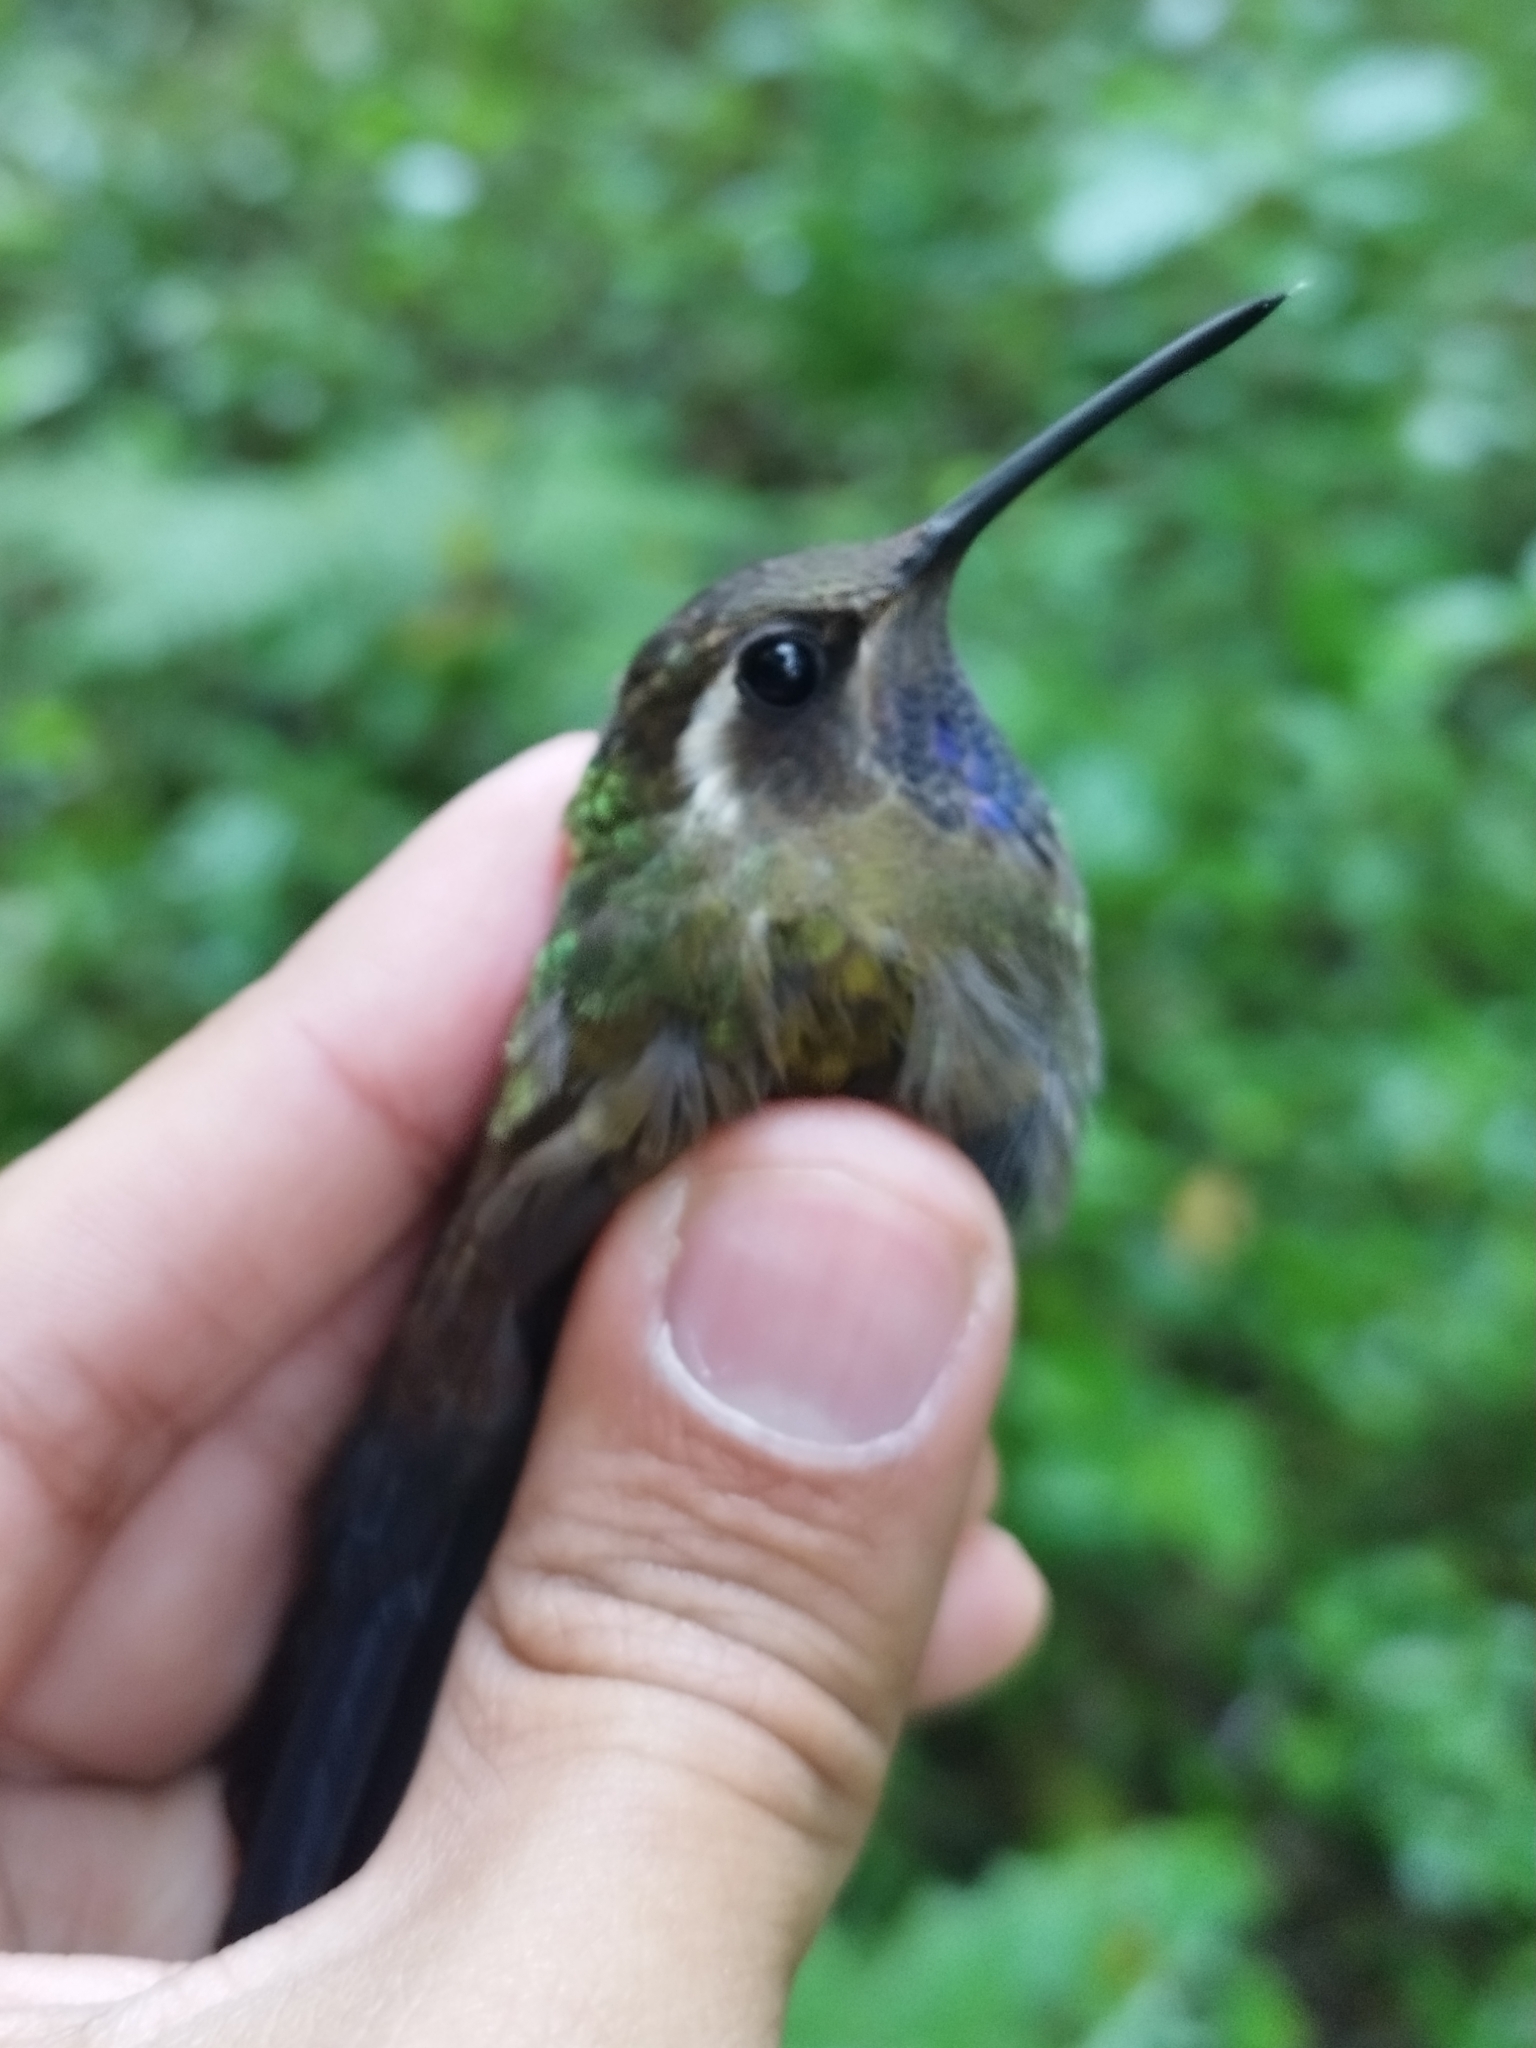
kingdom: Animalia
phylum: Chordata
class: Aves
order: Apodiformes
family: Trochilidae
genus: Lampornis
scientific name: Lampornis amethystinus
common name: Amethyst-throated mountaingem
